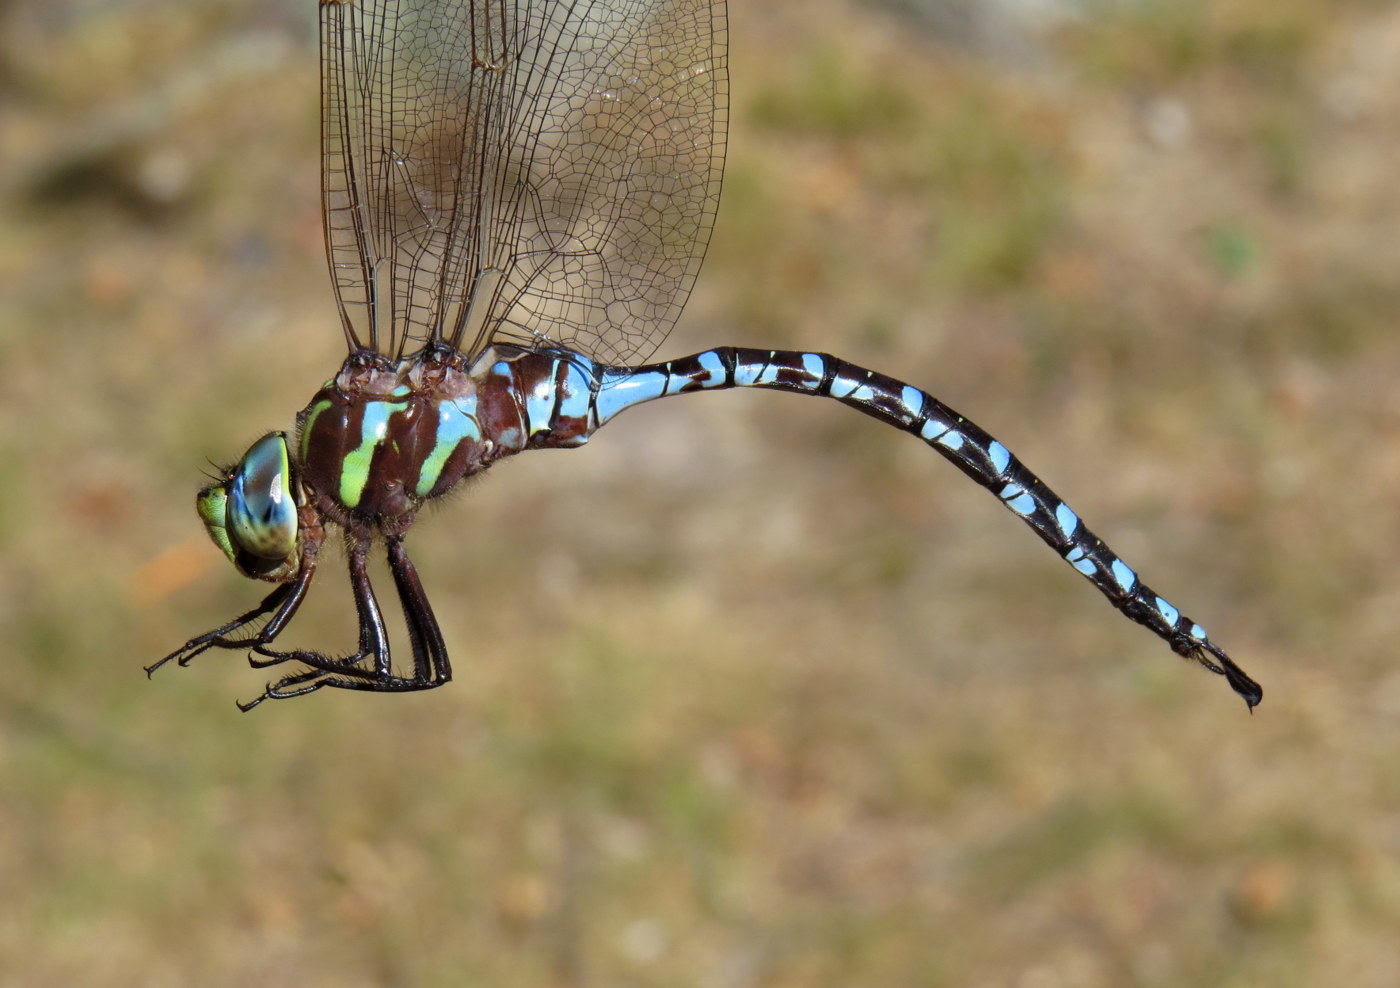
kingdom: Animalia
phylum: Arthropoda
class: Insecta
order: Odonata
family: Aeshnidae
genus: Aeshna
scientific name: Aeshna constricta
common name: Lance-tipped darner
